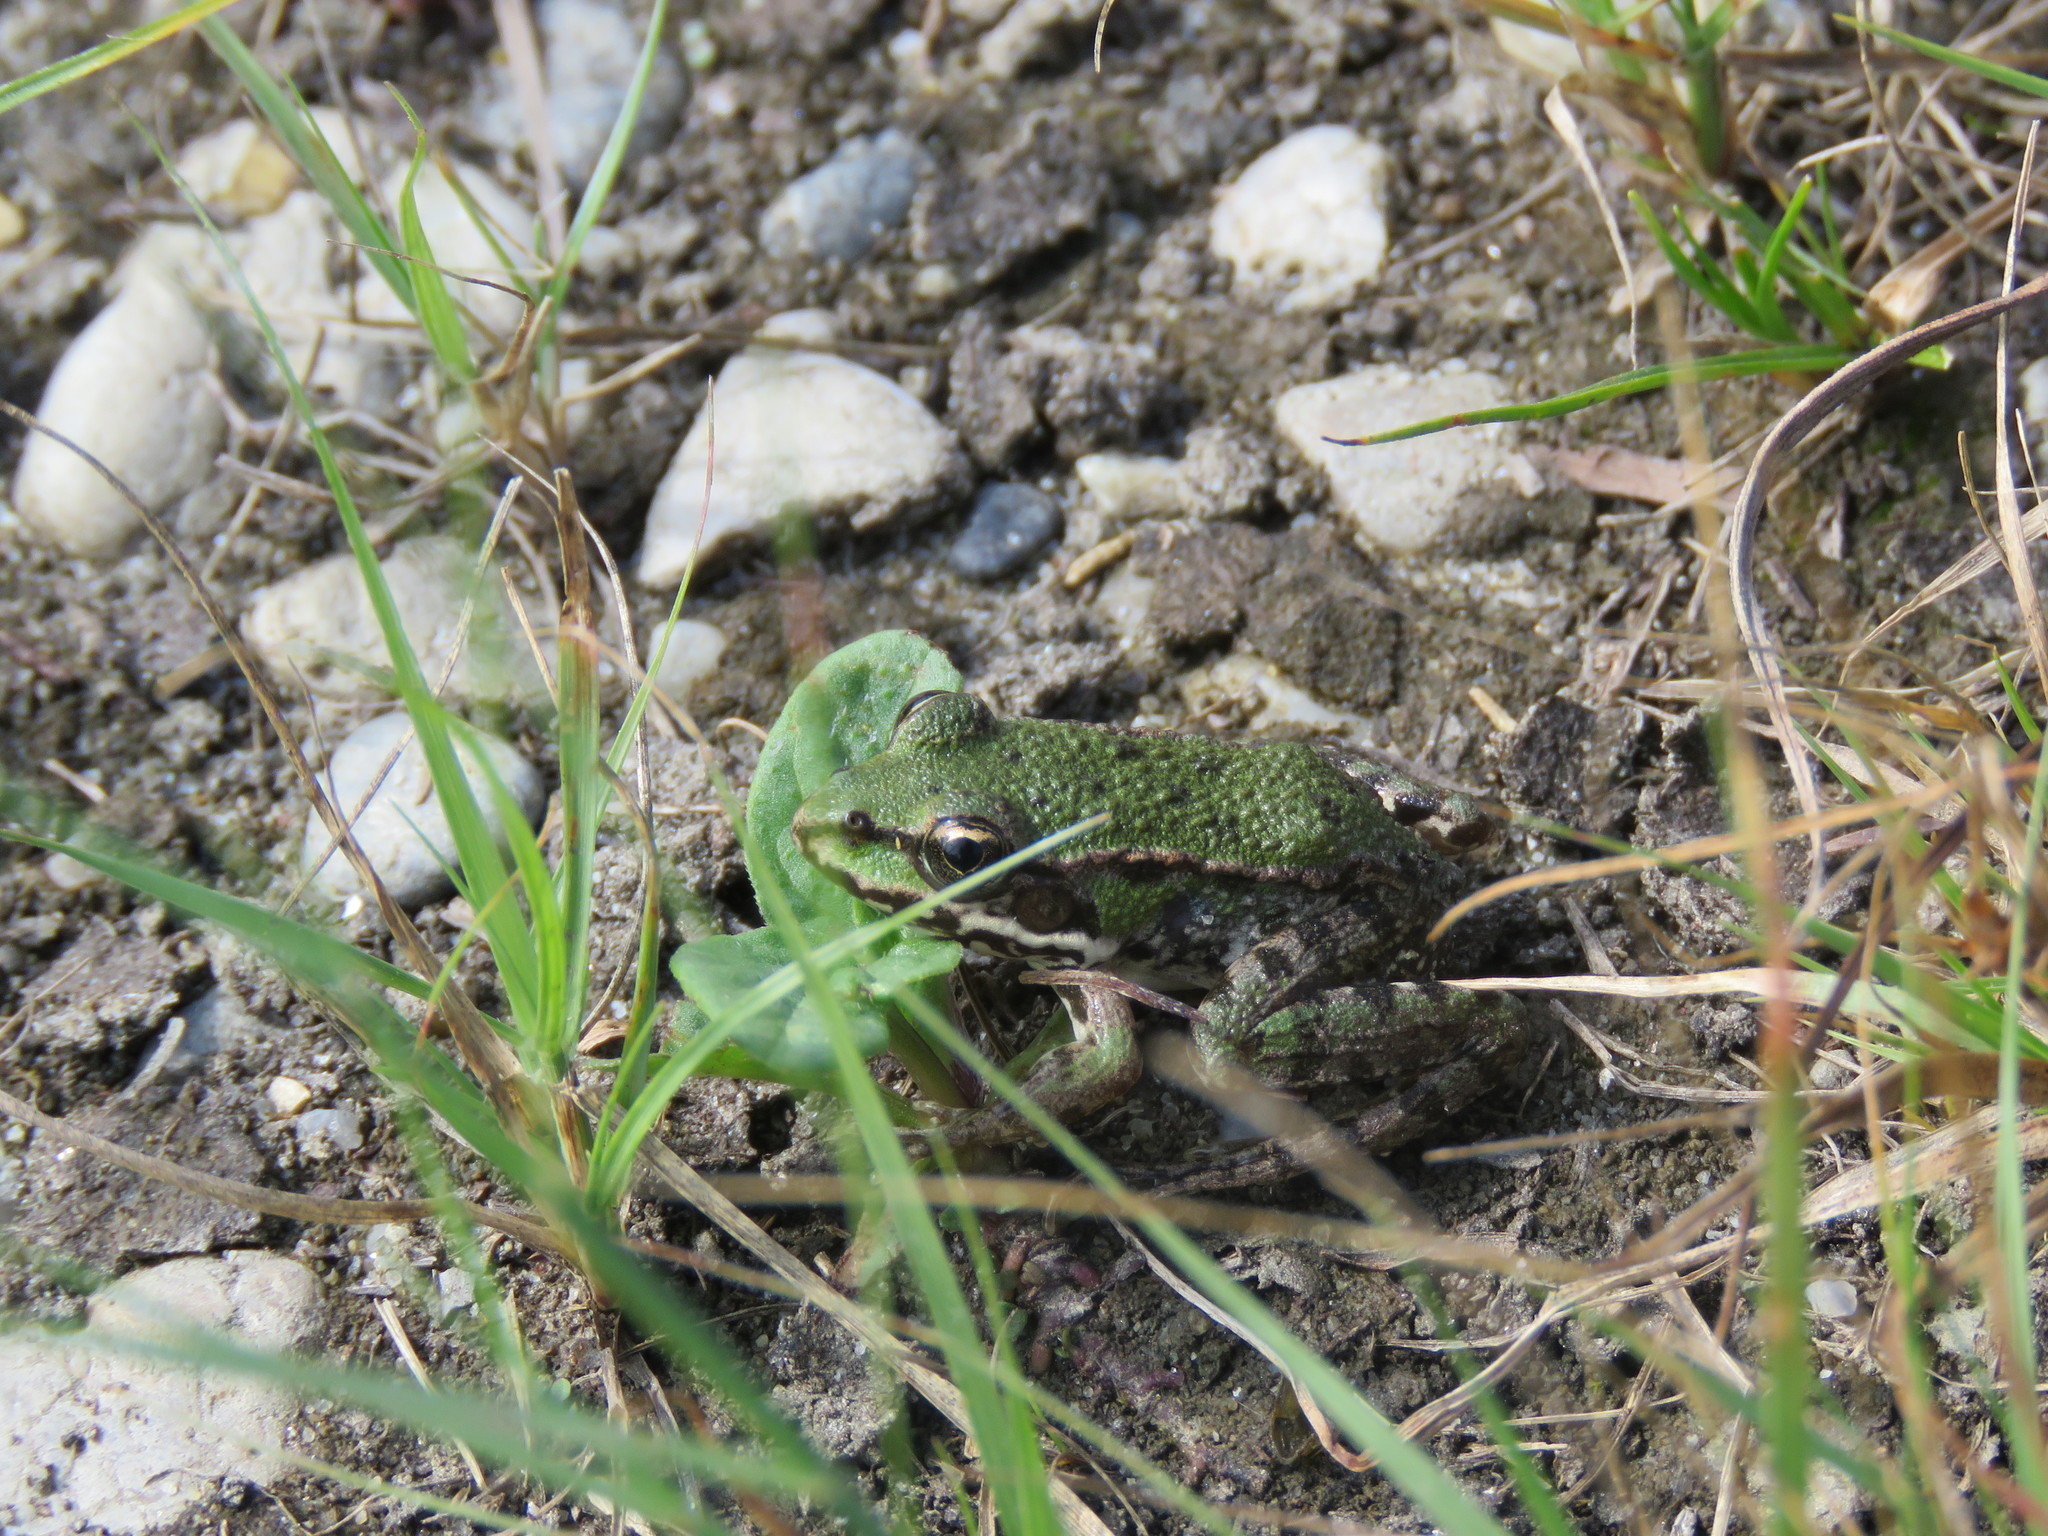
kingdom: Animalia
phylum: Chordata
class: Amphibia
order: Anura
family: Ranidae
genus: Pelophylax
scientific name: Pelophylax
